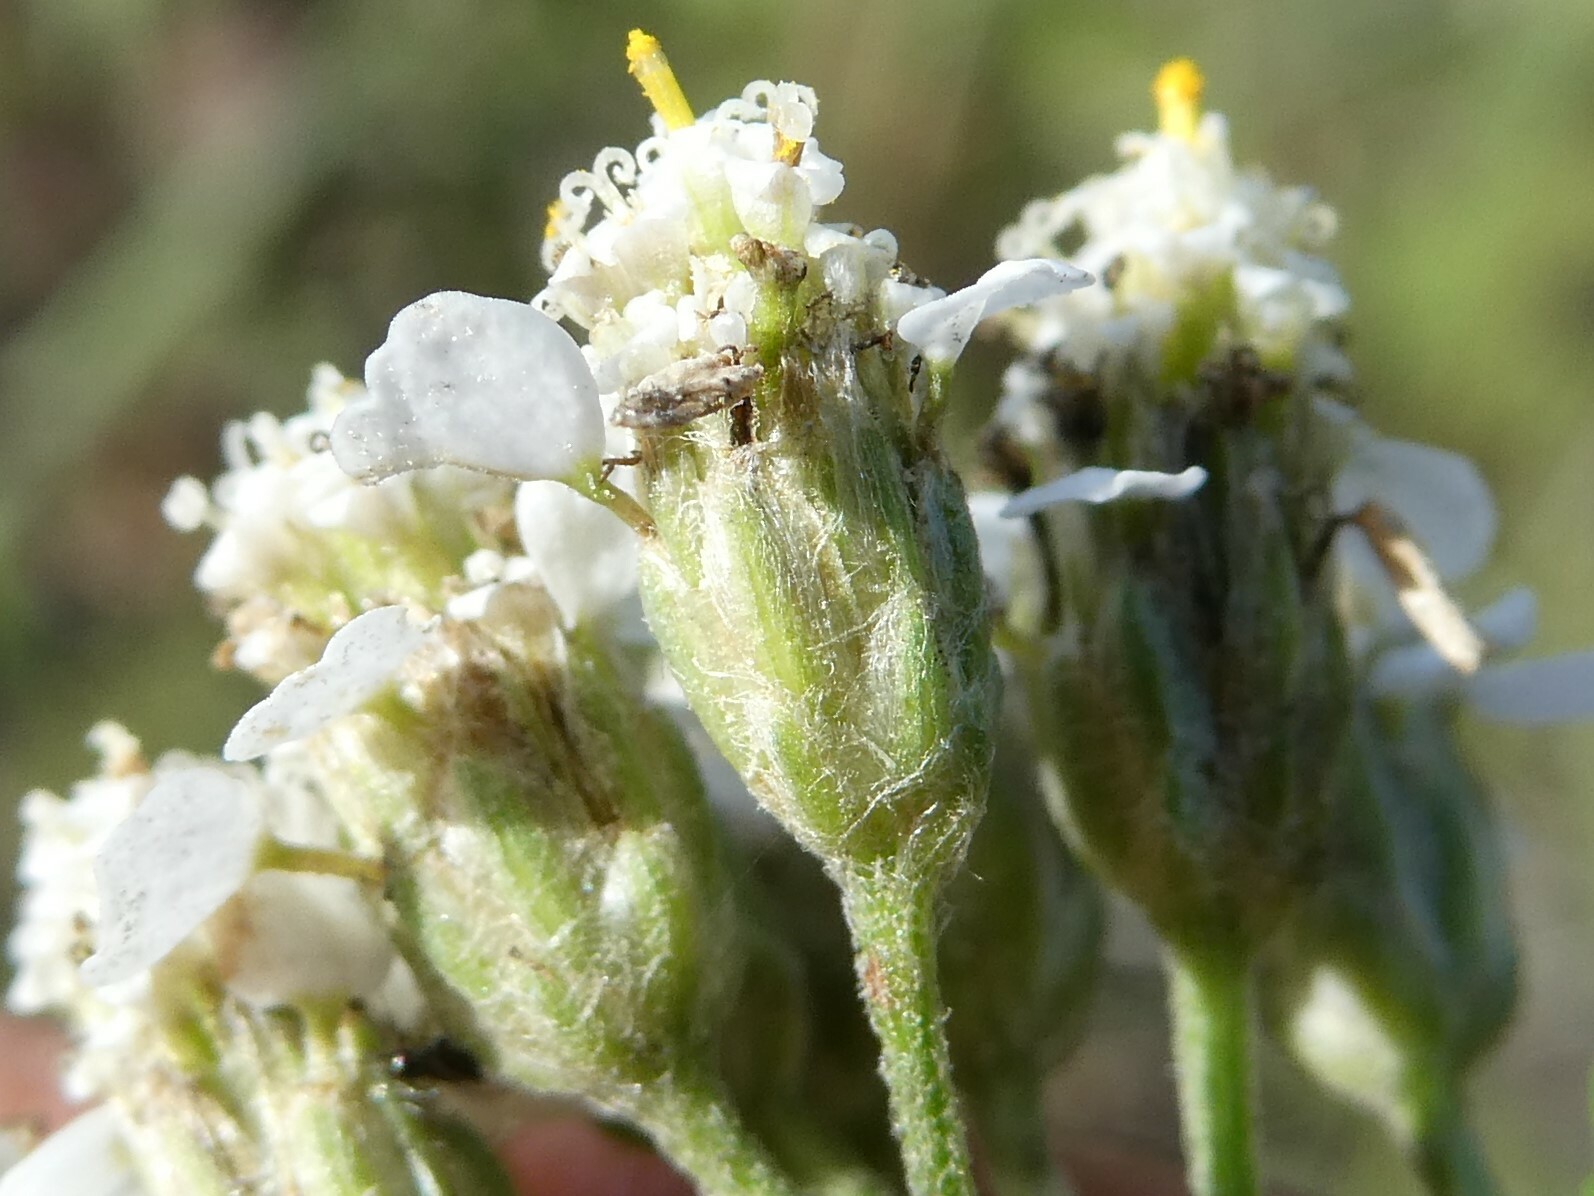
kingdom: Plantae
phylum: Tracheophyta
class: Magnoliopsida
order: Asterales
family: Asteraceae
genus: Achillea
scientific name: Achillea millefolium
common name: Yarrow
